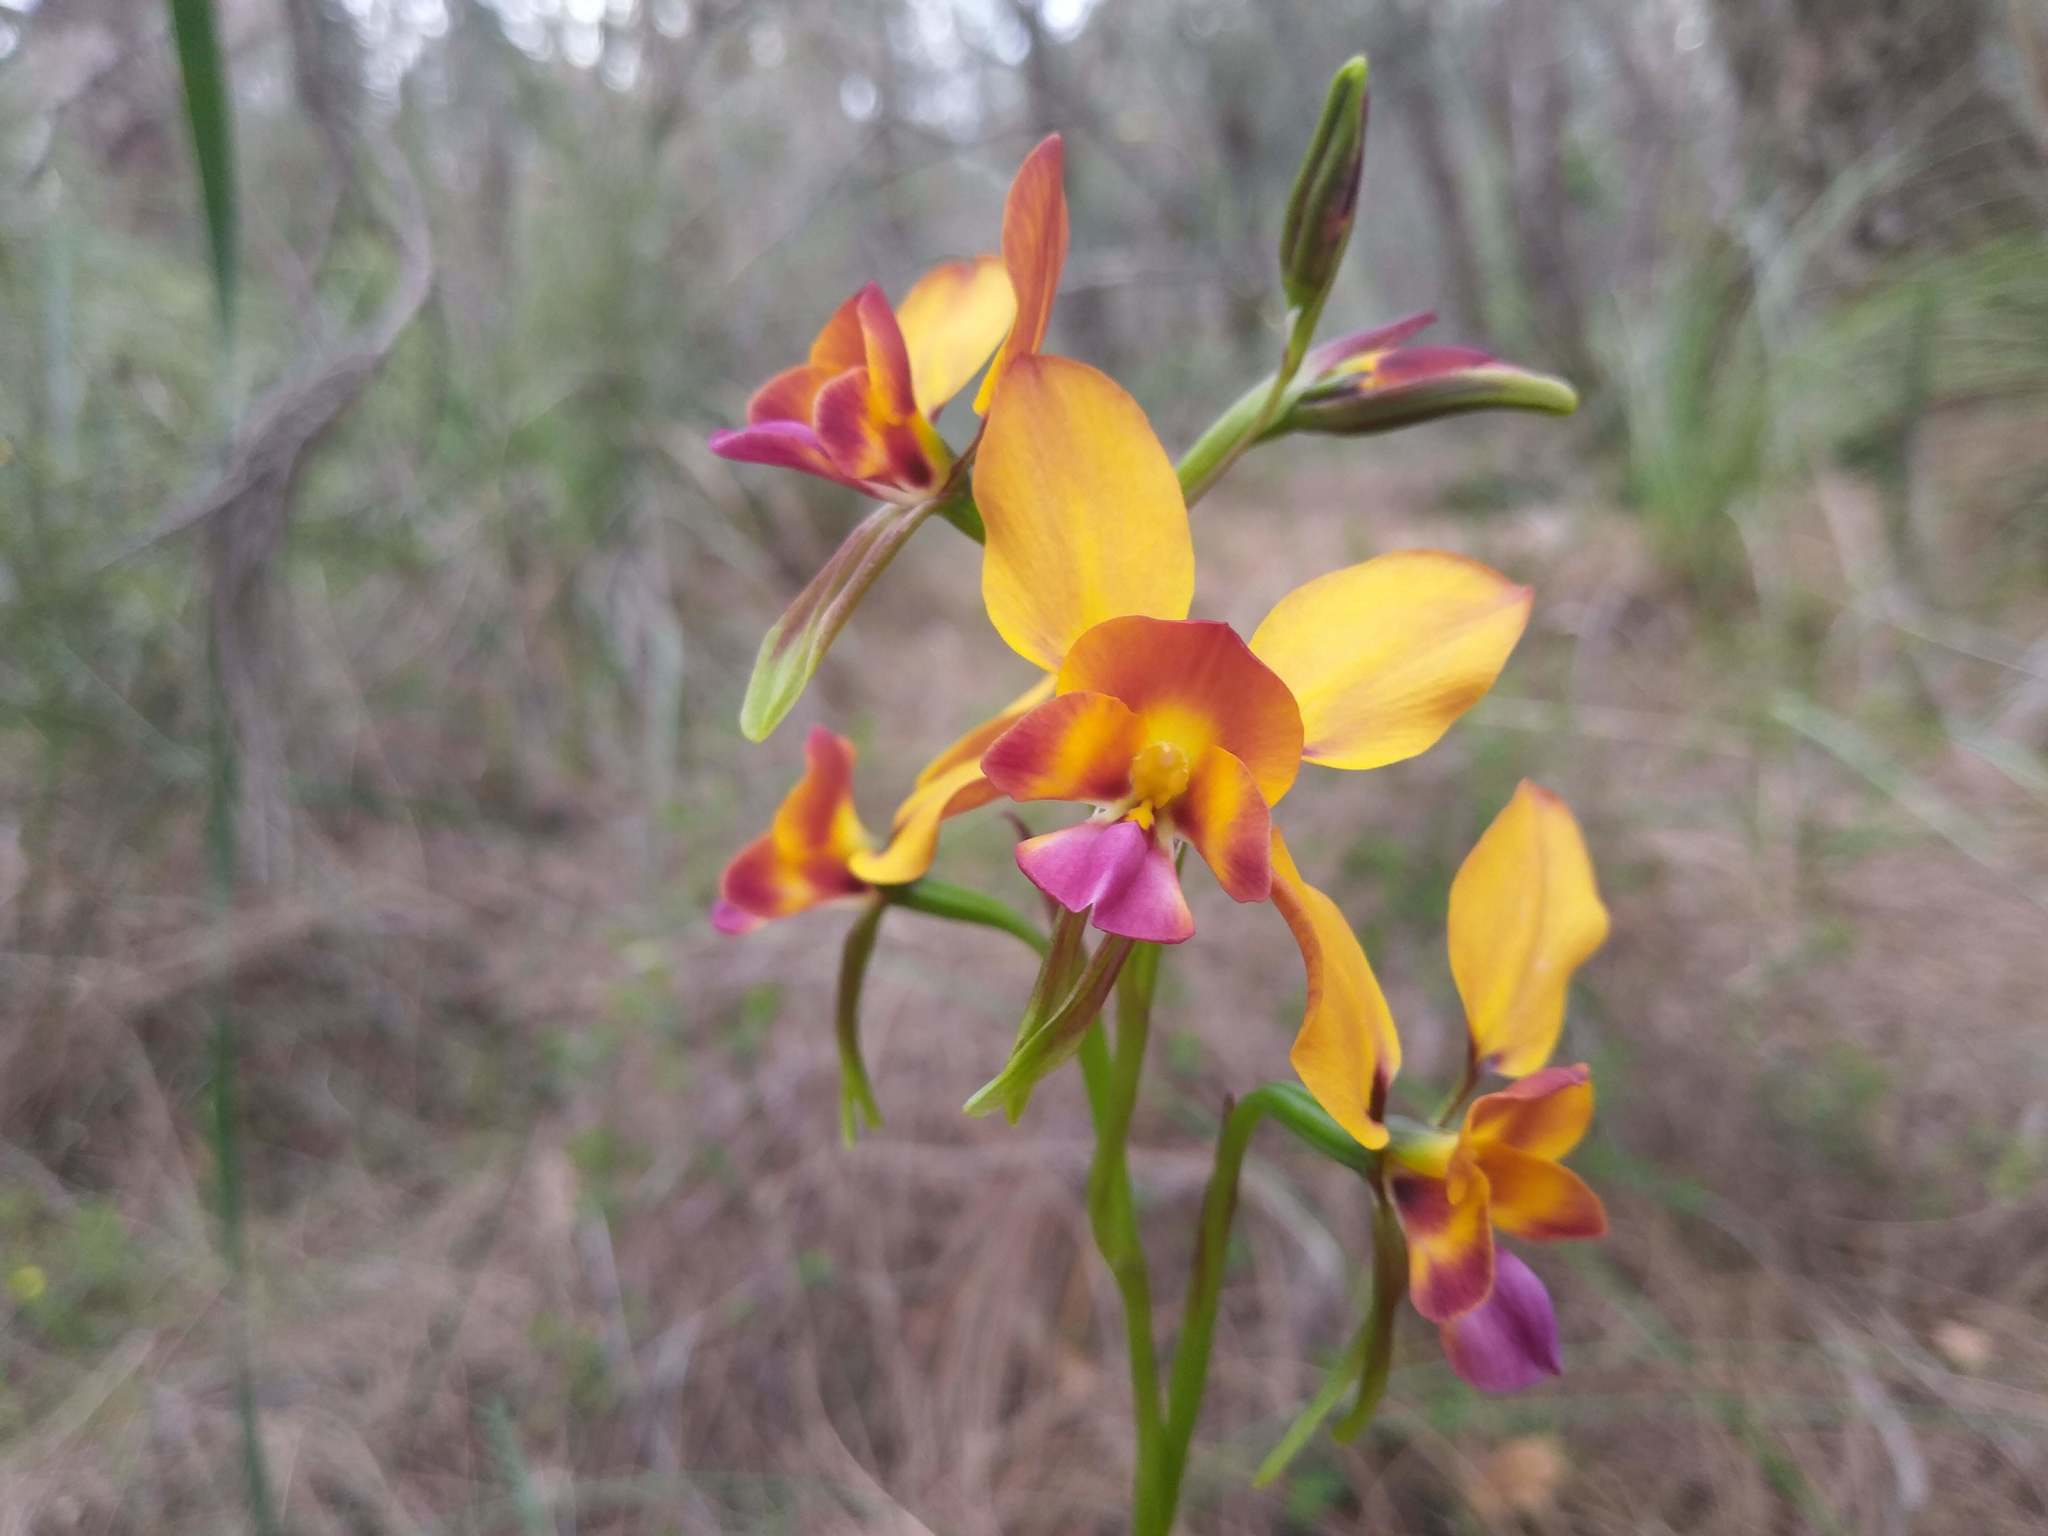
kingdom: Plantae
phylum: Tracheophyta
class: Liliopsida
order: Asparagales
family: Orchidaceae
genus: Diuris
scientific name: Diuris magnifica
